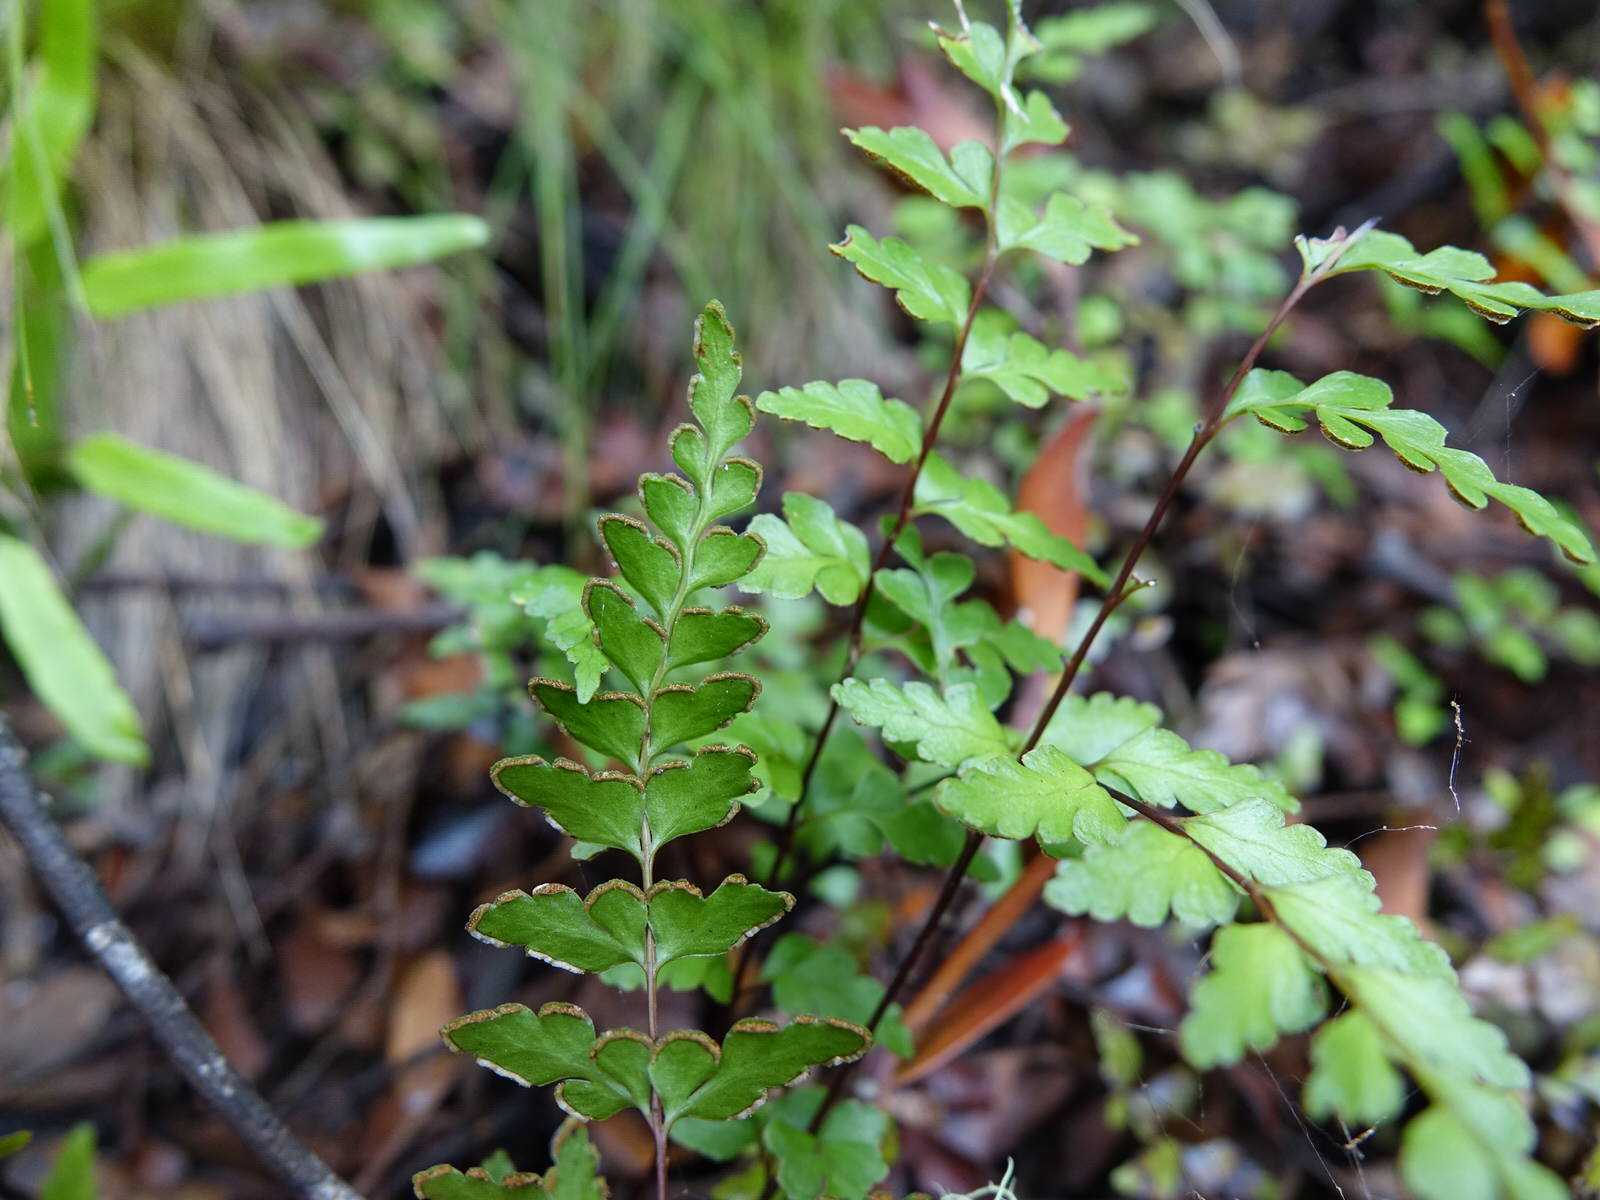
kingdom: Plantae
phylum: Tracheophyta
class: Polypodiopsida
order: Polypodiales
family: Lindsaeaceae
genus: Lindsaea
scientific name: Lindsaea trichomanoides
